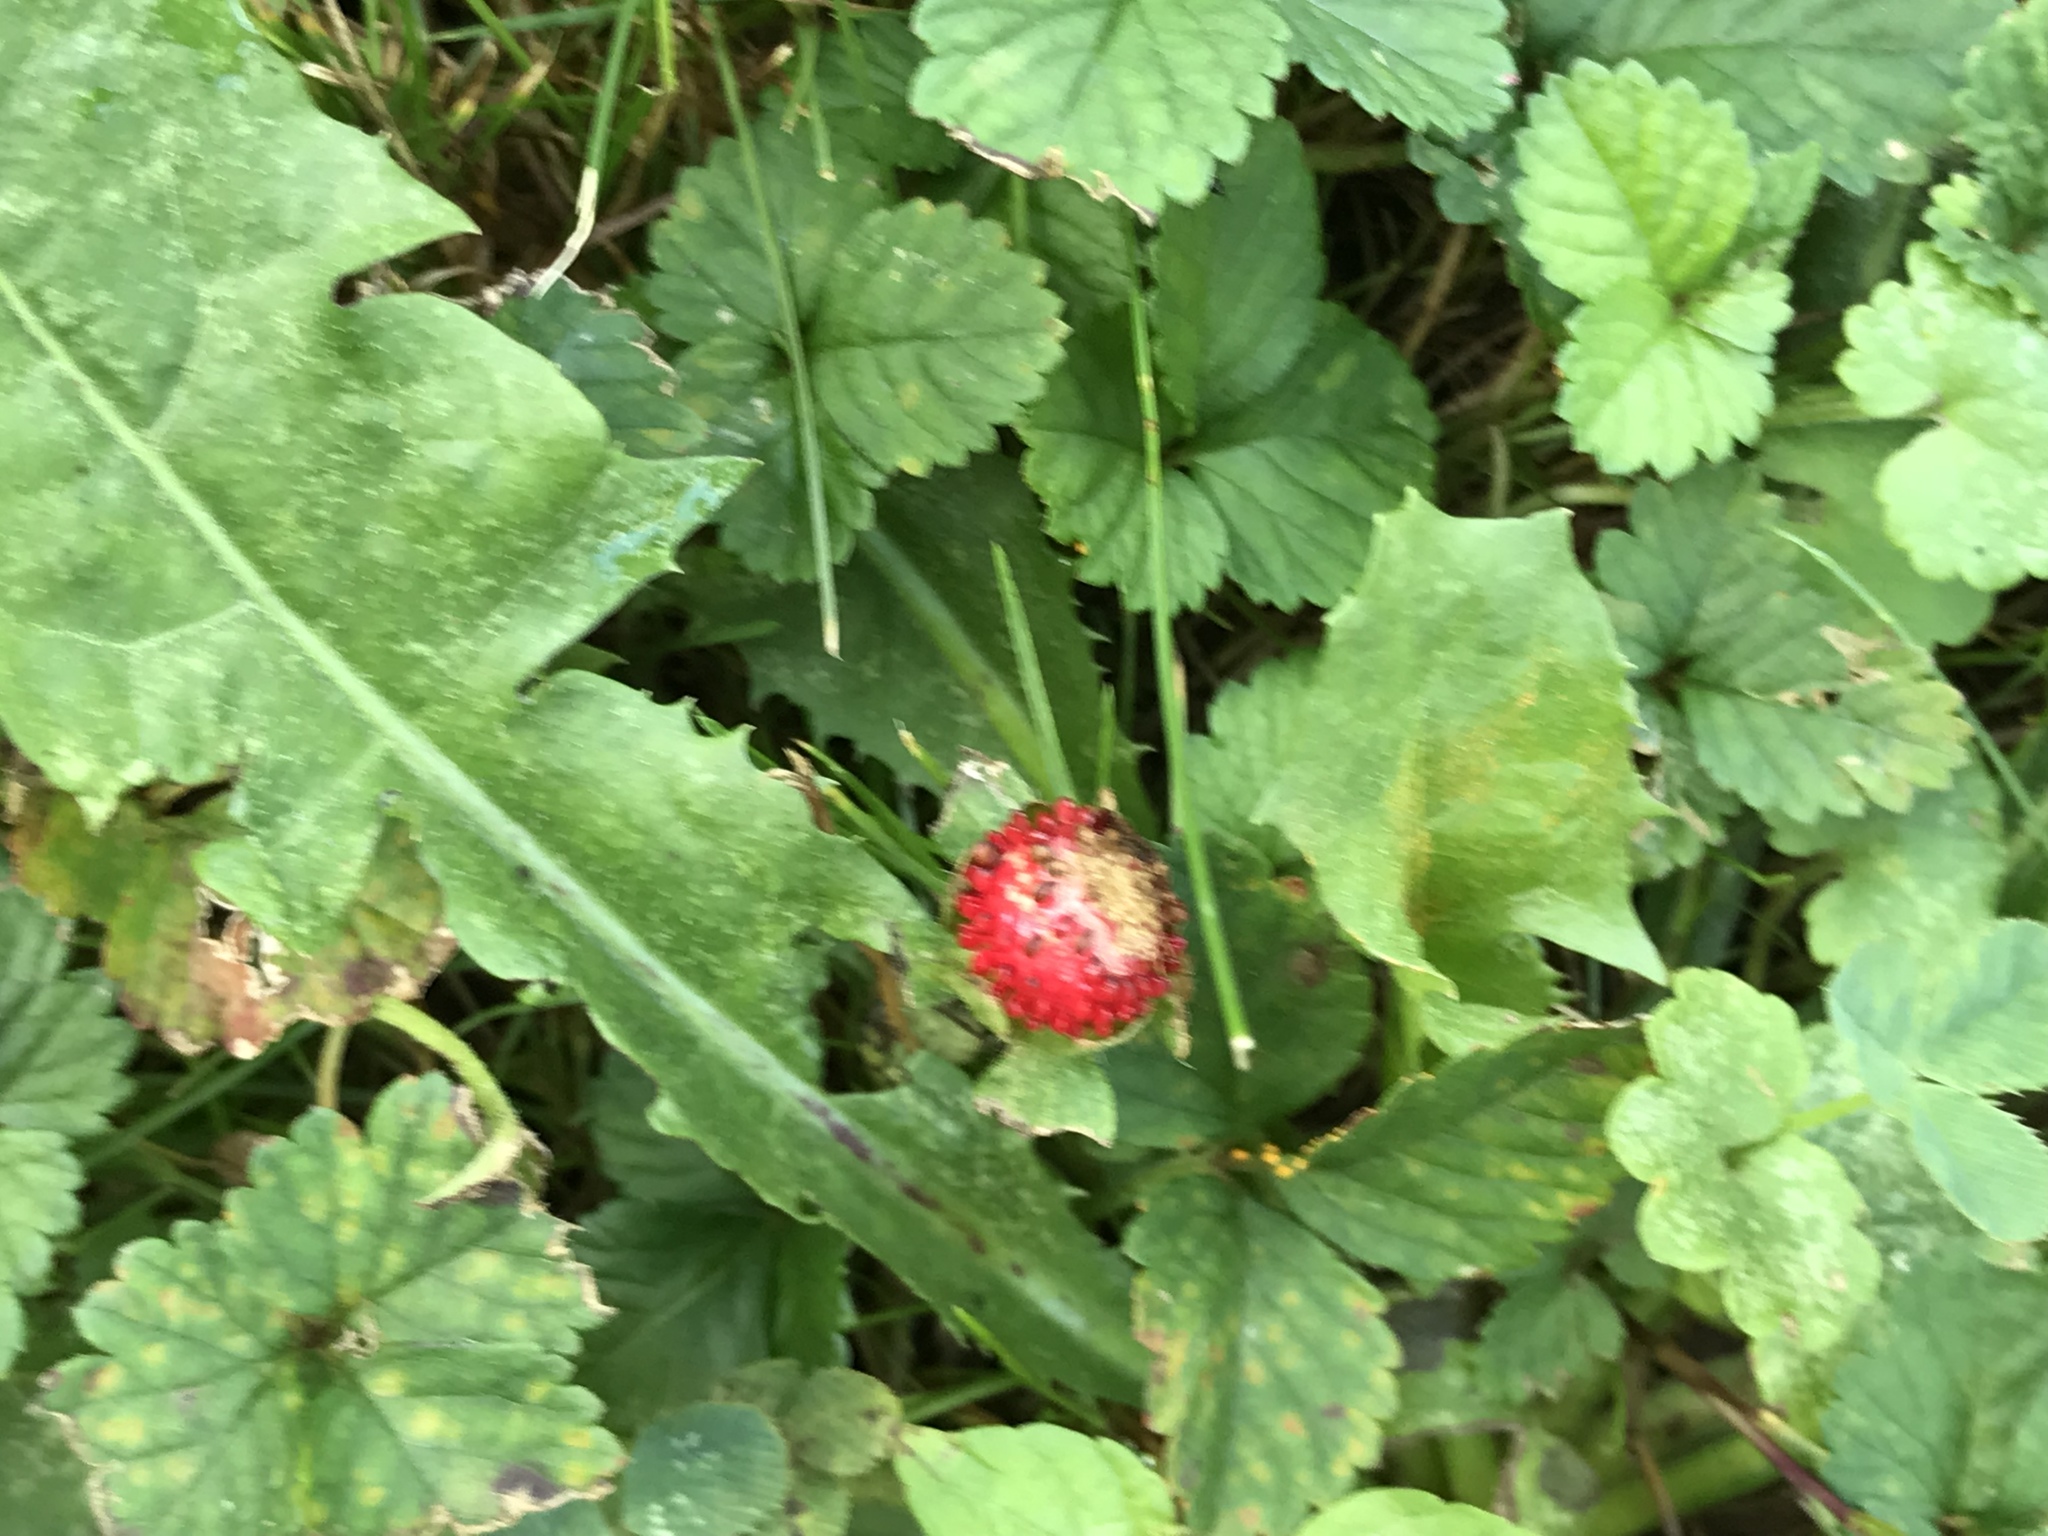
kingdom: Plantae
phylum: Tracheophyta
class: Magnoliopsida
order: Rosales
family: Rosaceae
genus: Potentilla
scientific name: Potentilla indica
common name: Yellow-flowered strawberry
